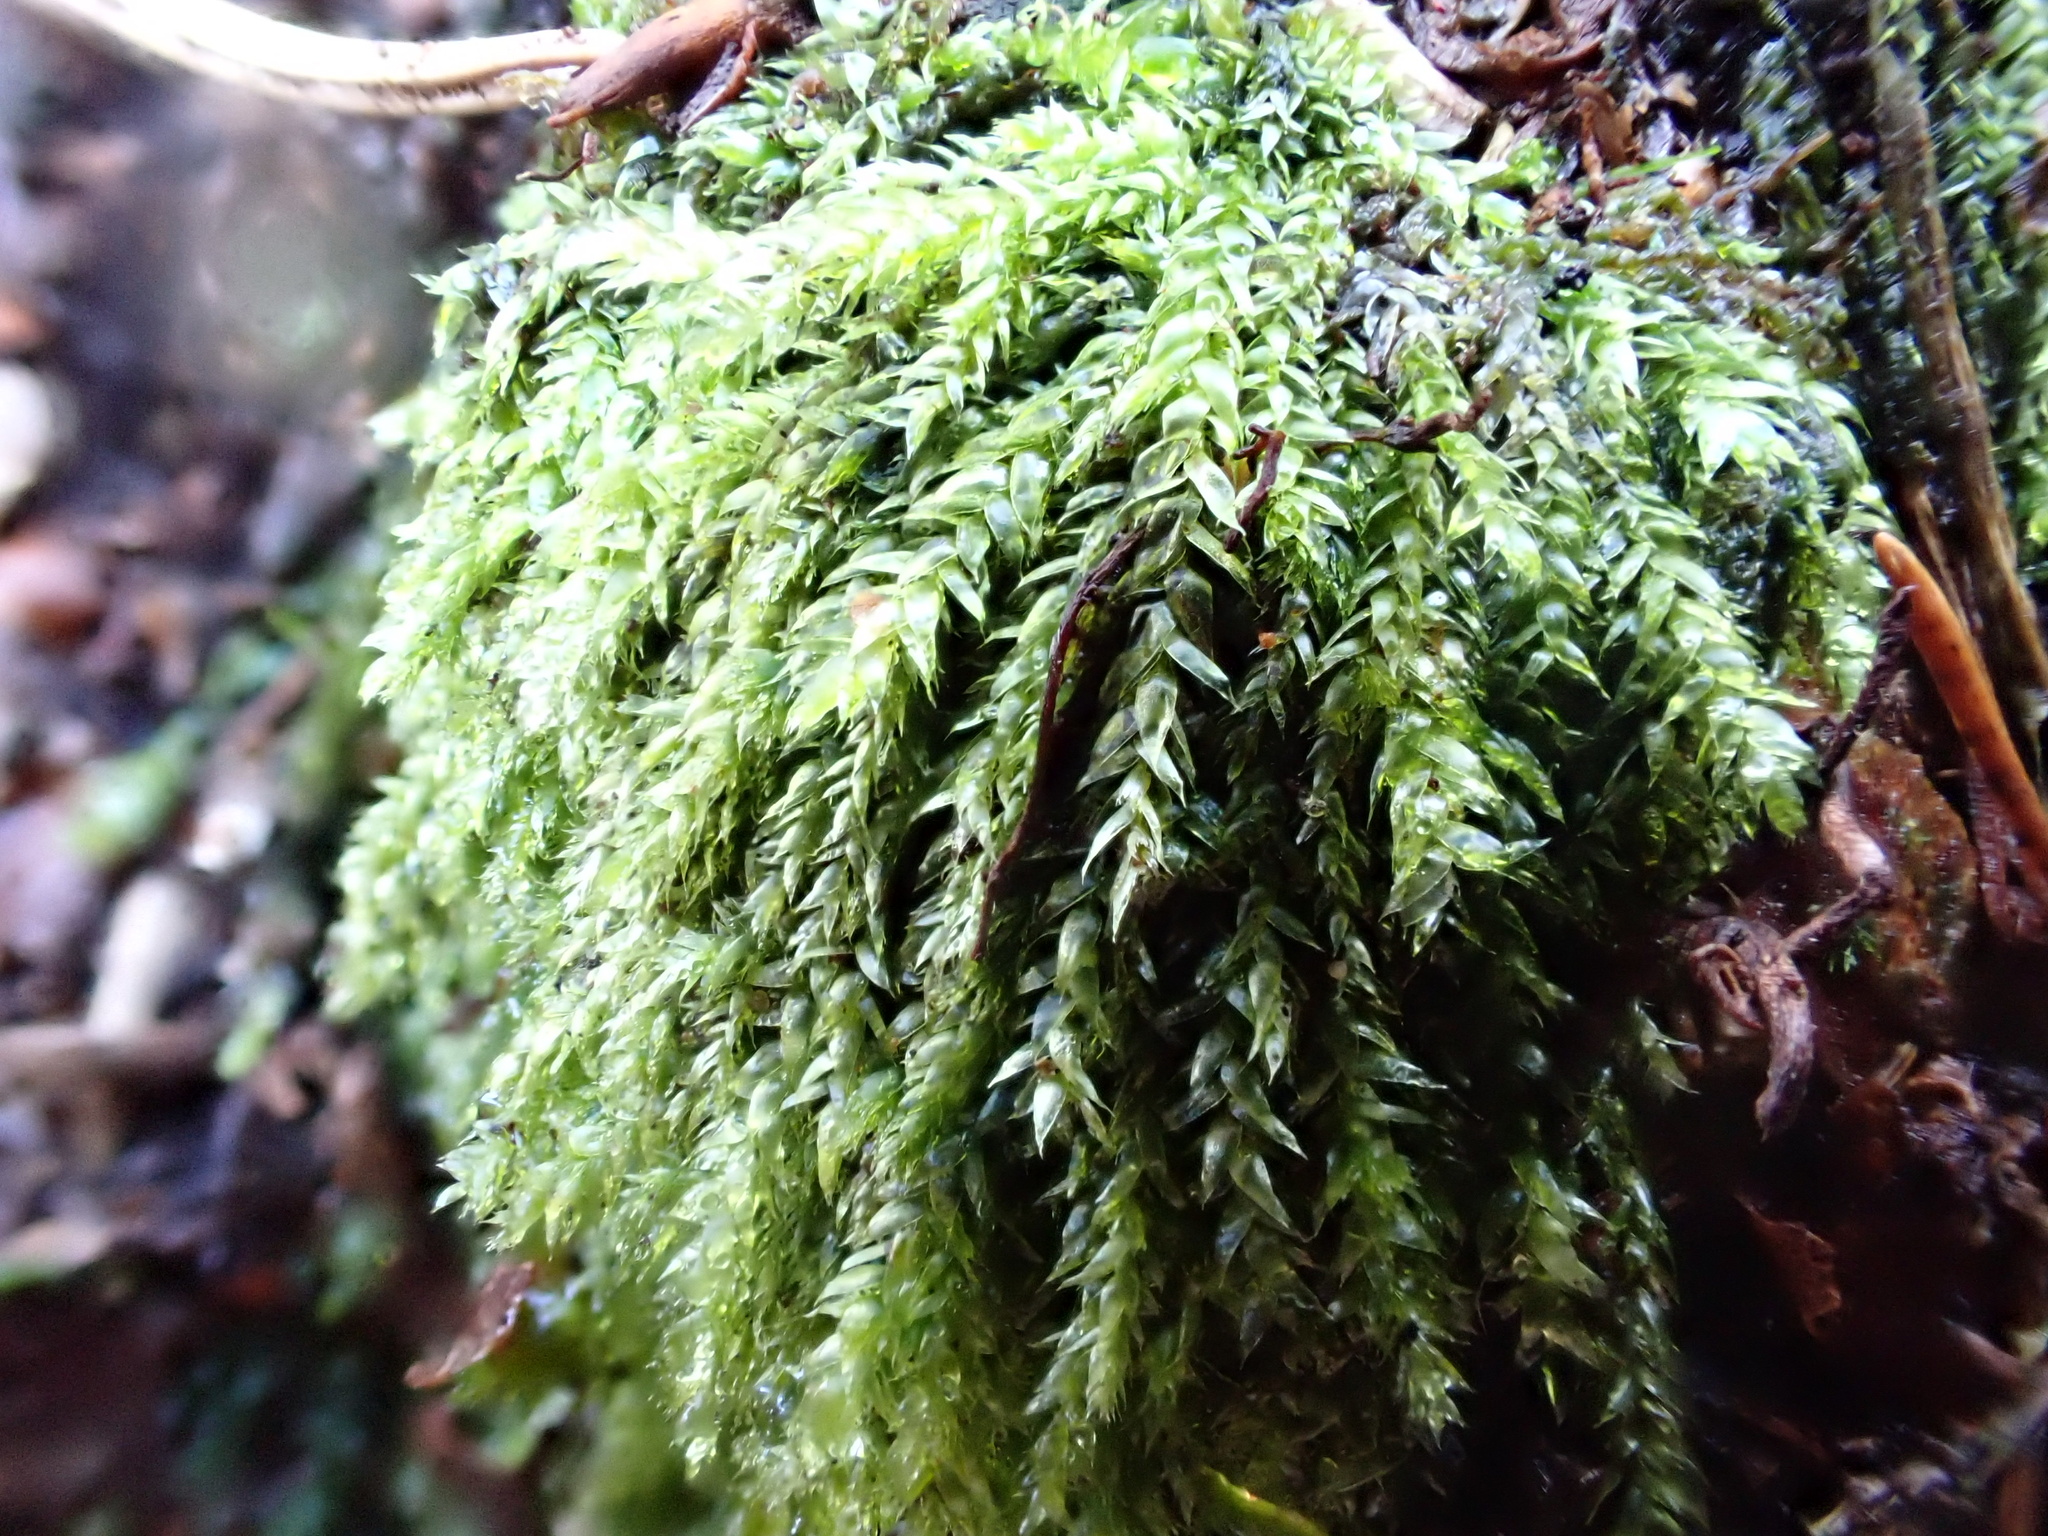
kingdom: Plantae
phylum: Bryophyta
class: Bryopsida
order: Hypnales
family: Plagiotheciaceae
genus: Pseudotaxiphyllum
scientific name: Pseudotaxiphyllum elegans
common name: Elegant silk moss
